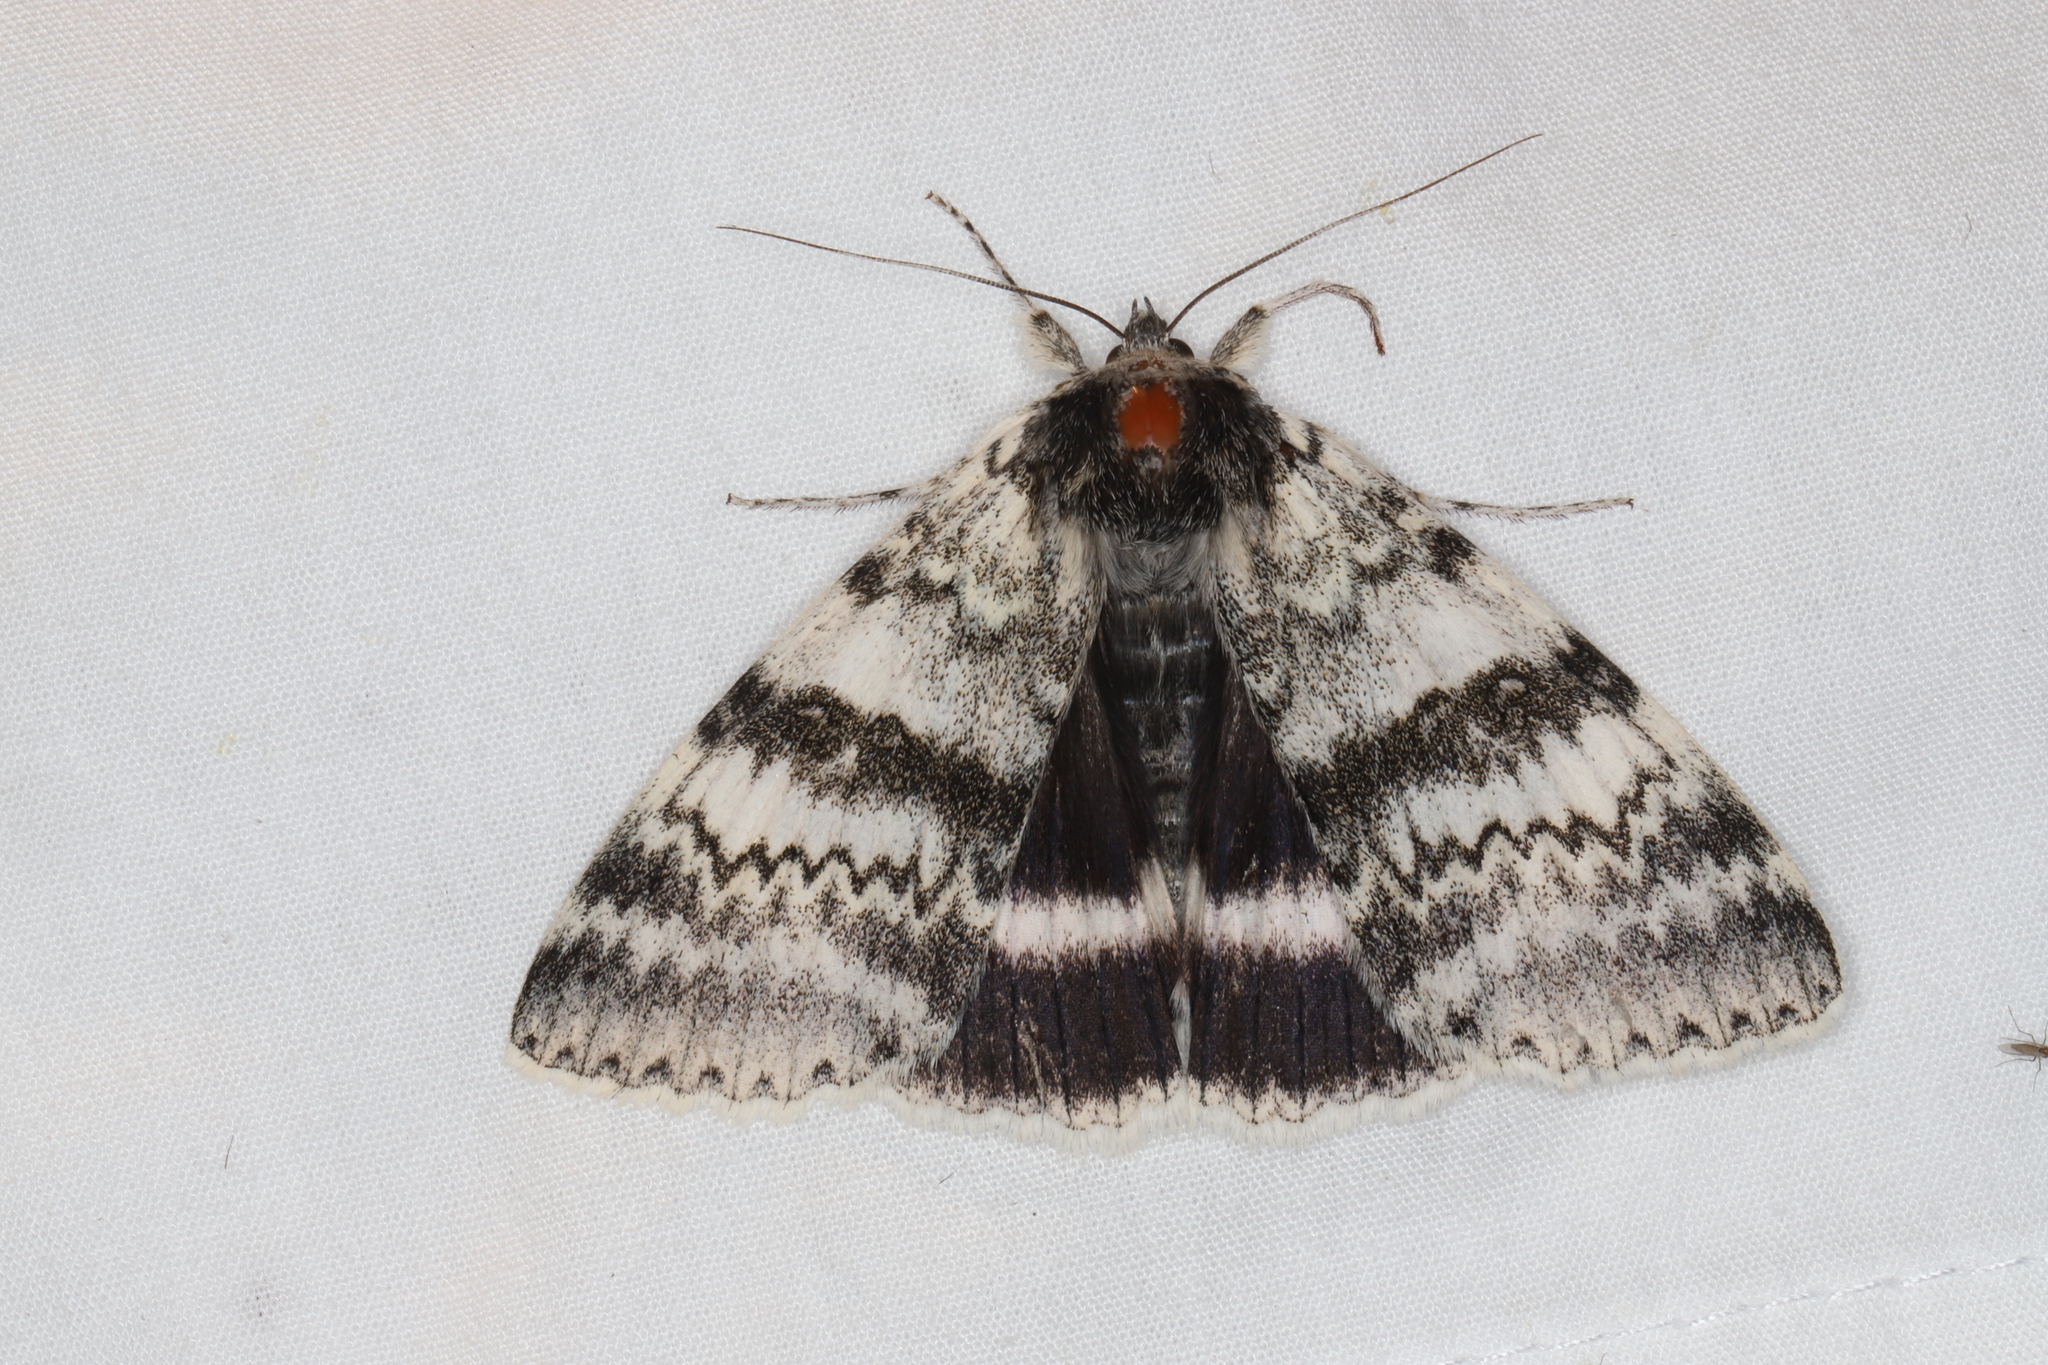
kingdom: Animalia
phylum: Arthropoda
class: Insecta
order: Lepidoptera
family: Erebidae
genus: Catocala
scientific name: Catocala relicta
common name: White underwing
